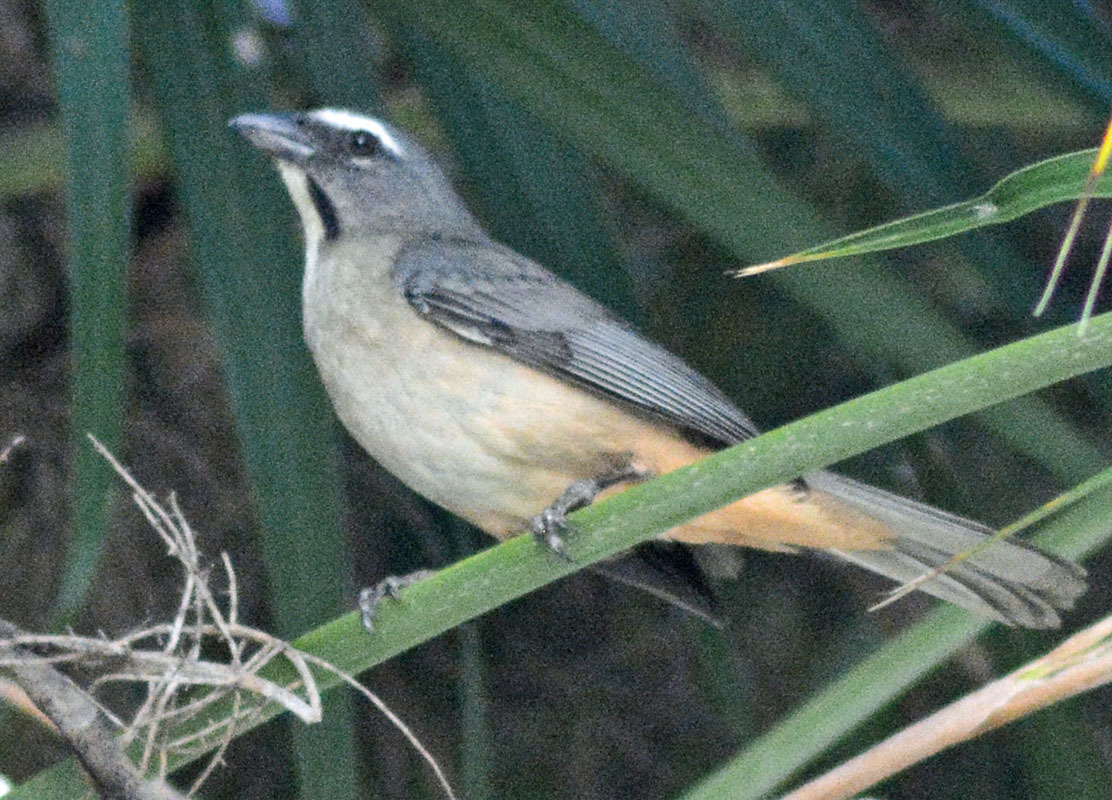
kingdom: Animalia
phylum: Chordata
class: Aves
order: Passeriformes
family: Thraupidae
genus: Saltator
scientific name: Saltator grandis
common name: Cinnamon-bellied saltator
